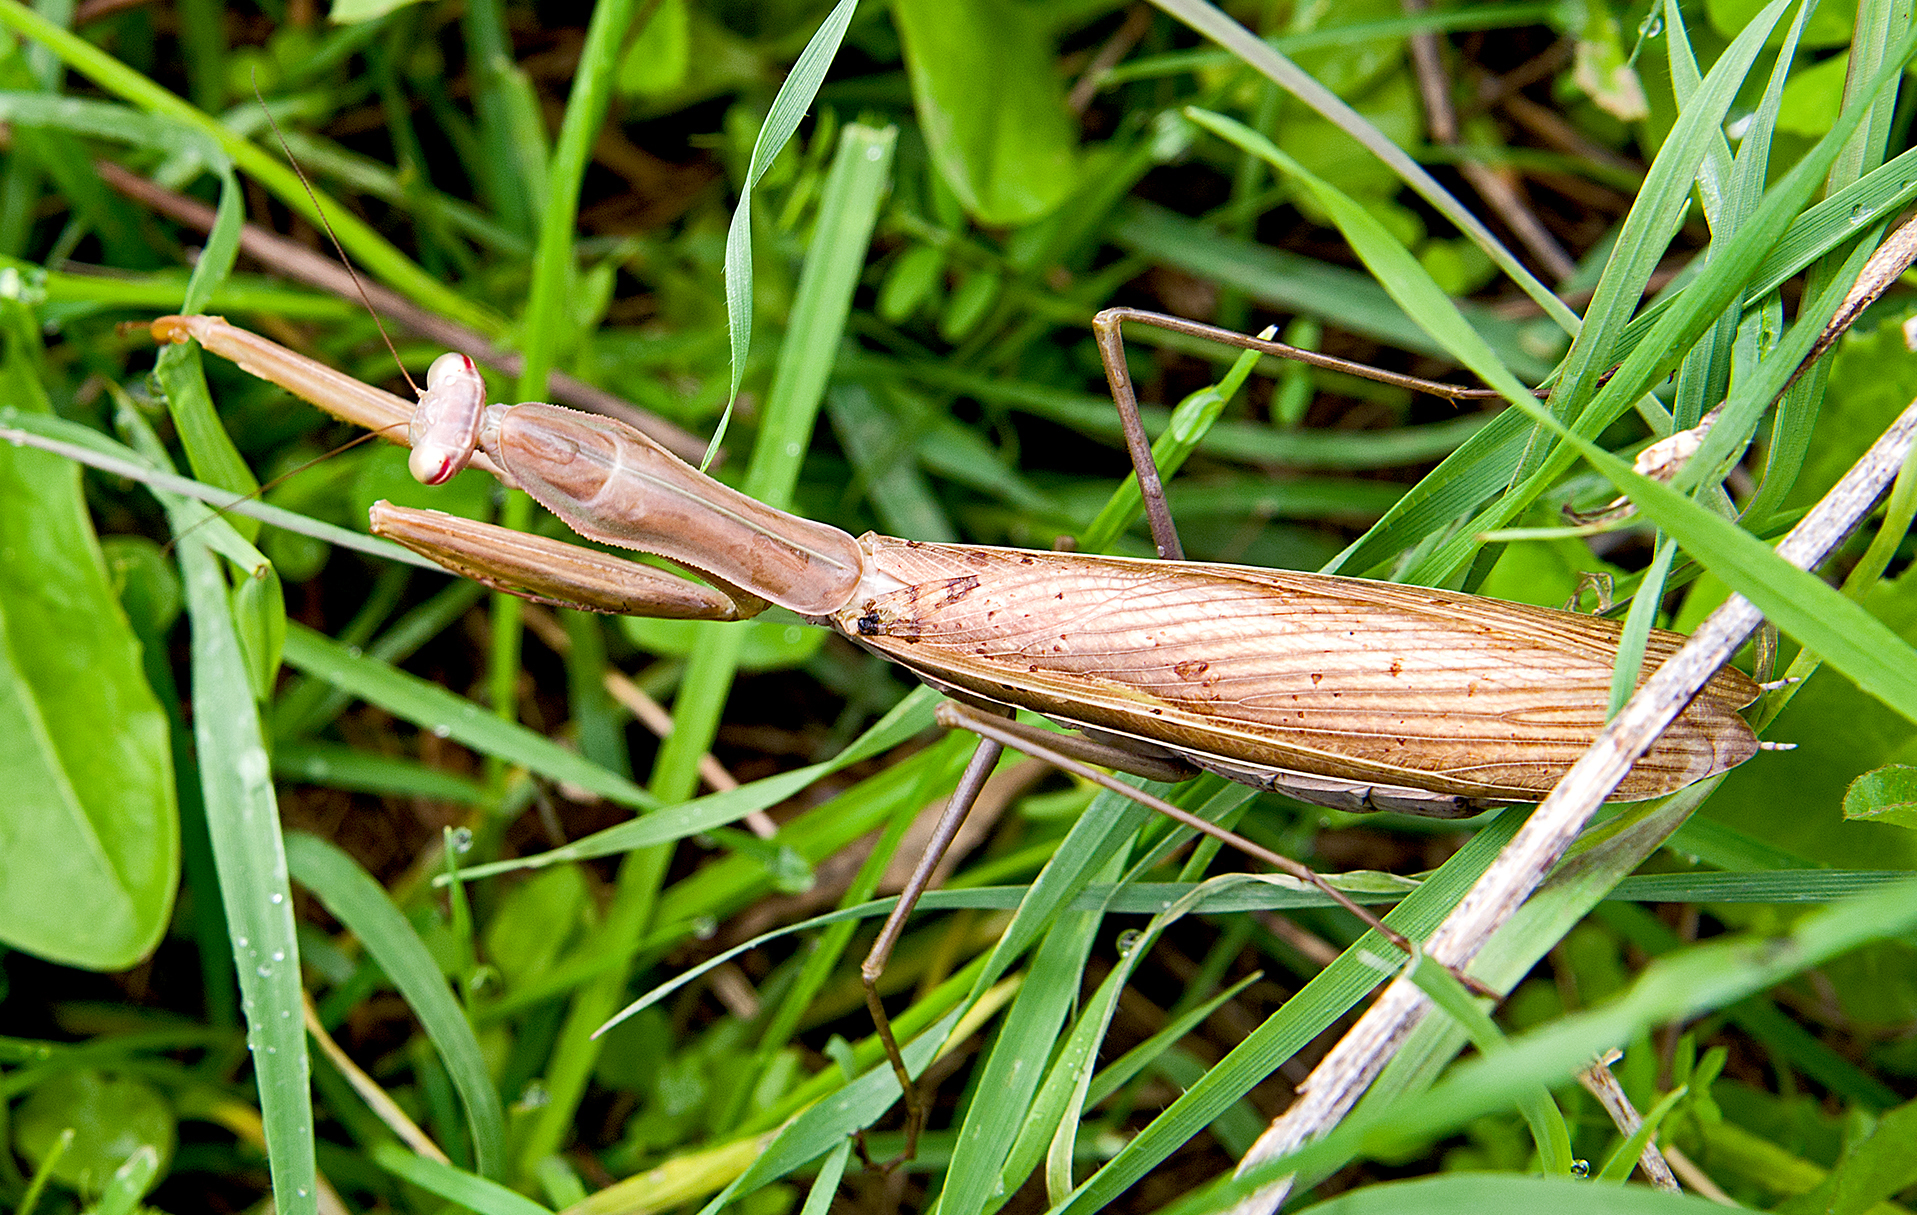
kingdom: Animalia
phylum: Arthropoda
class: Insecta
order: Mantodea
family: Mantidae
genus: Mantis
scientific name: Mantis religiosa
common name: Praying mantis
